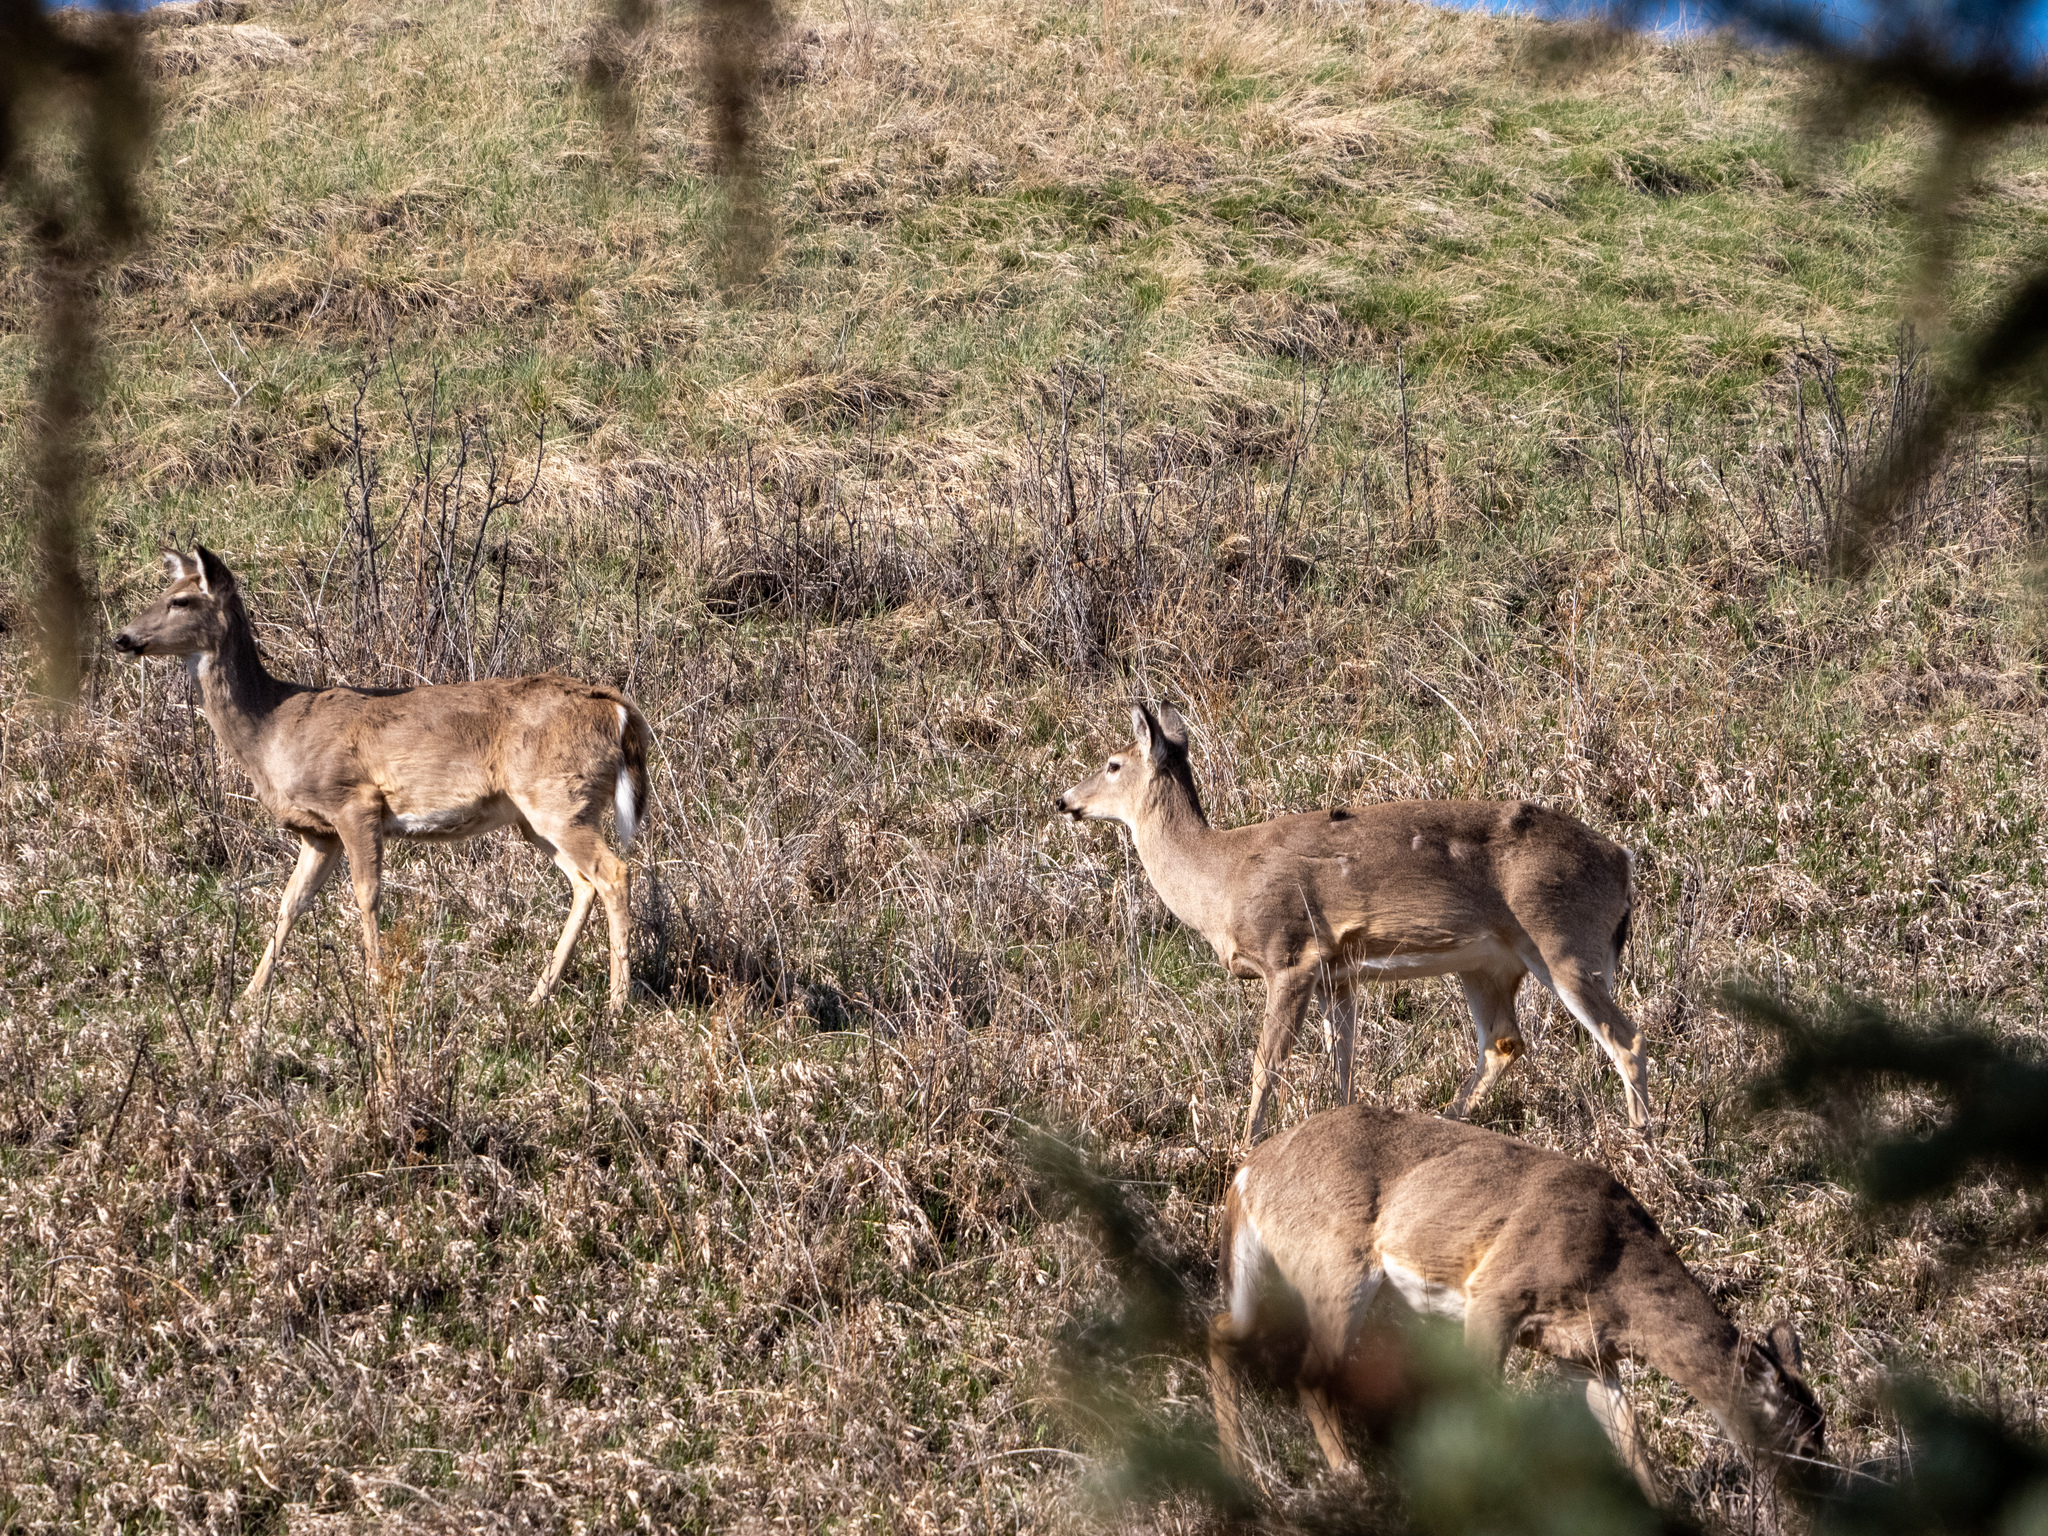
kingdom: Animalia
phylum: Chordata
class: Mammalia
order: Artiodactyla
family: Cervidae
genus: Odocoileus
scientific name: Odocoileus virginianus
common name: White-tailed deer
